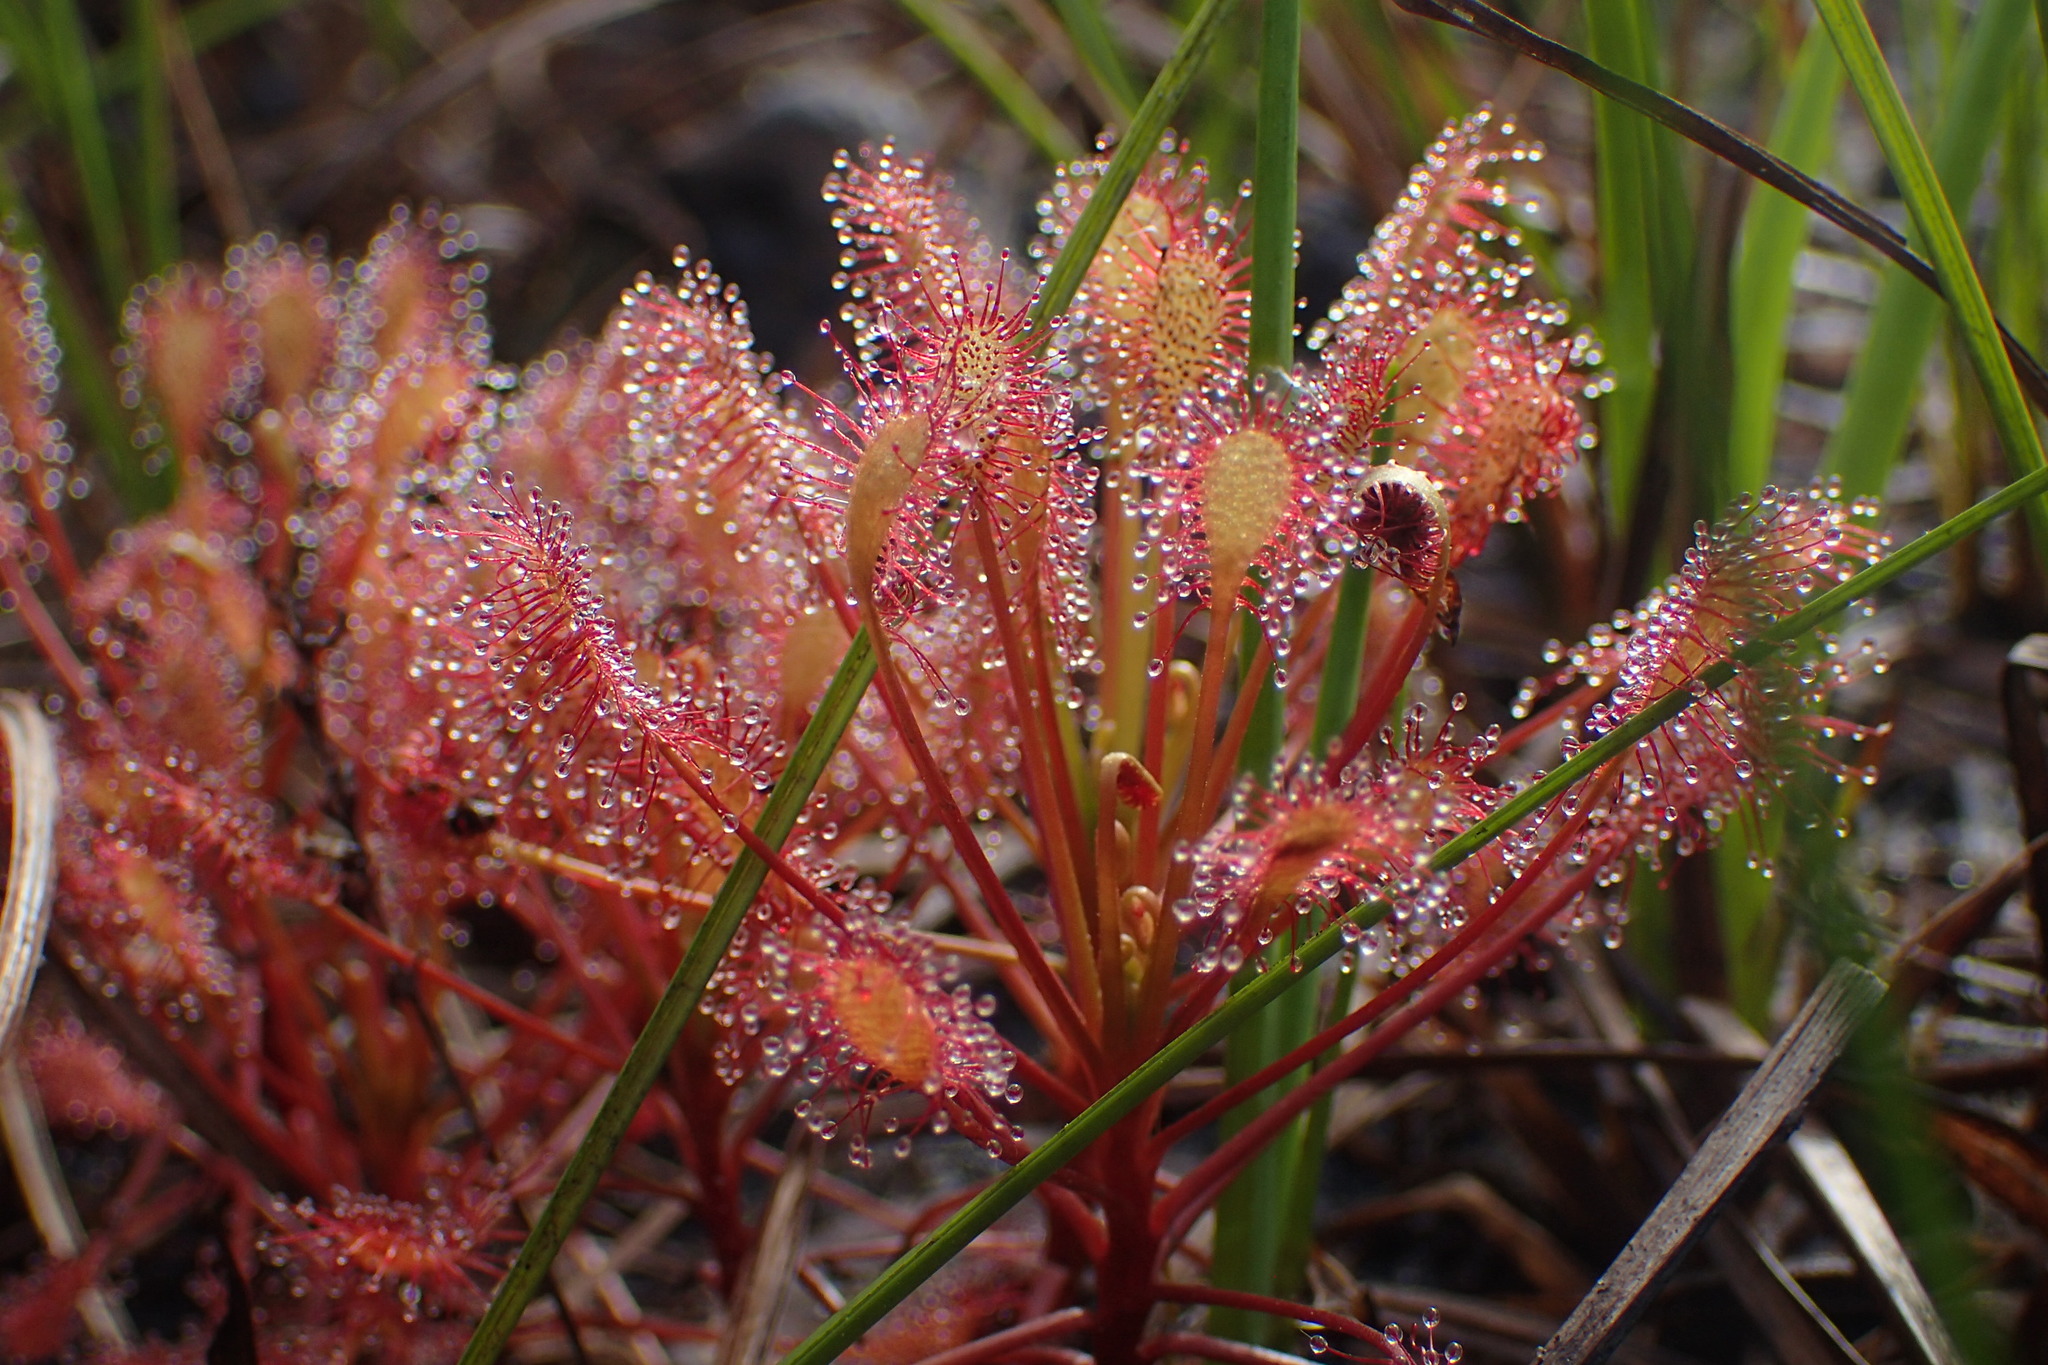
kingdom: Plantae
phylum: Tracheophyta
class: Magnoliopsida
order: Caryophyllales
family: Droseraceae
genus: Drosera
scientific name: Drosera intermedia
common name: Oblong-leaved sundew
